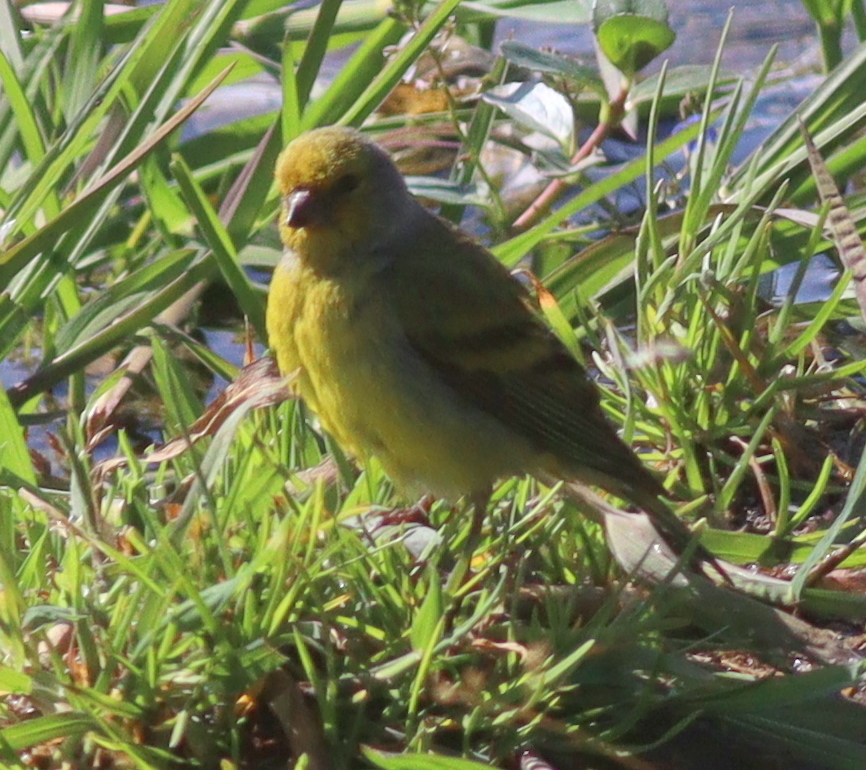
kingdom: Animalia
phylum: Chordata
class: Aves
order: Passeriformes
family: Fringillidae
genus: Carduelis
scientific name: Carduelis citrinella
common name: Citril finch
